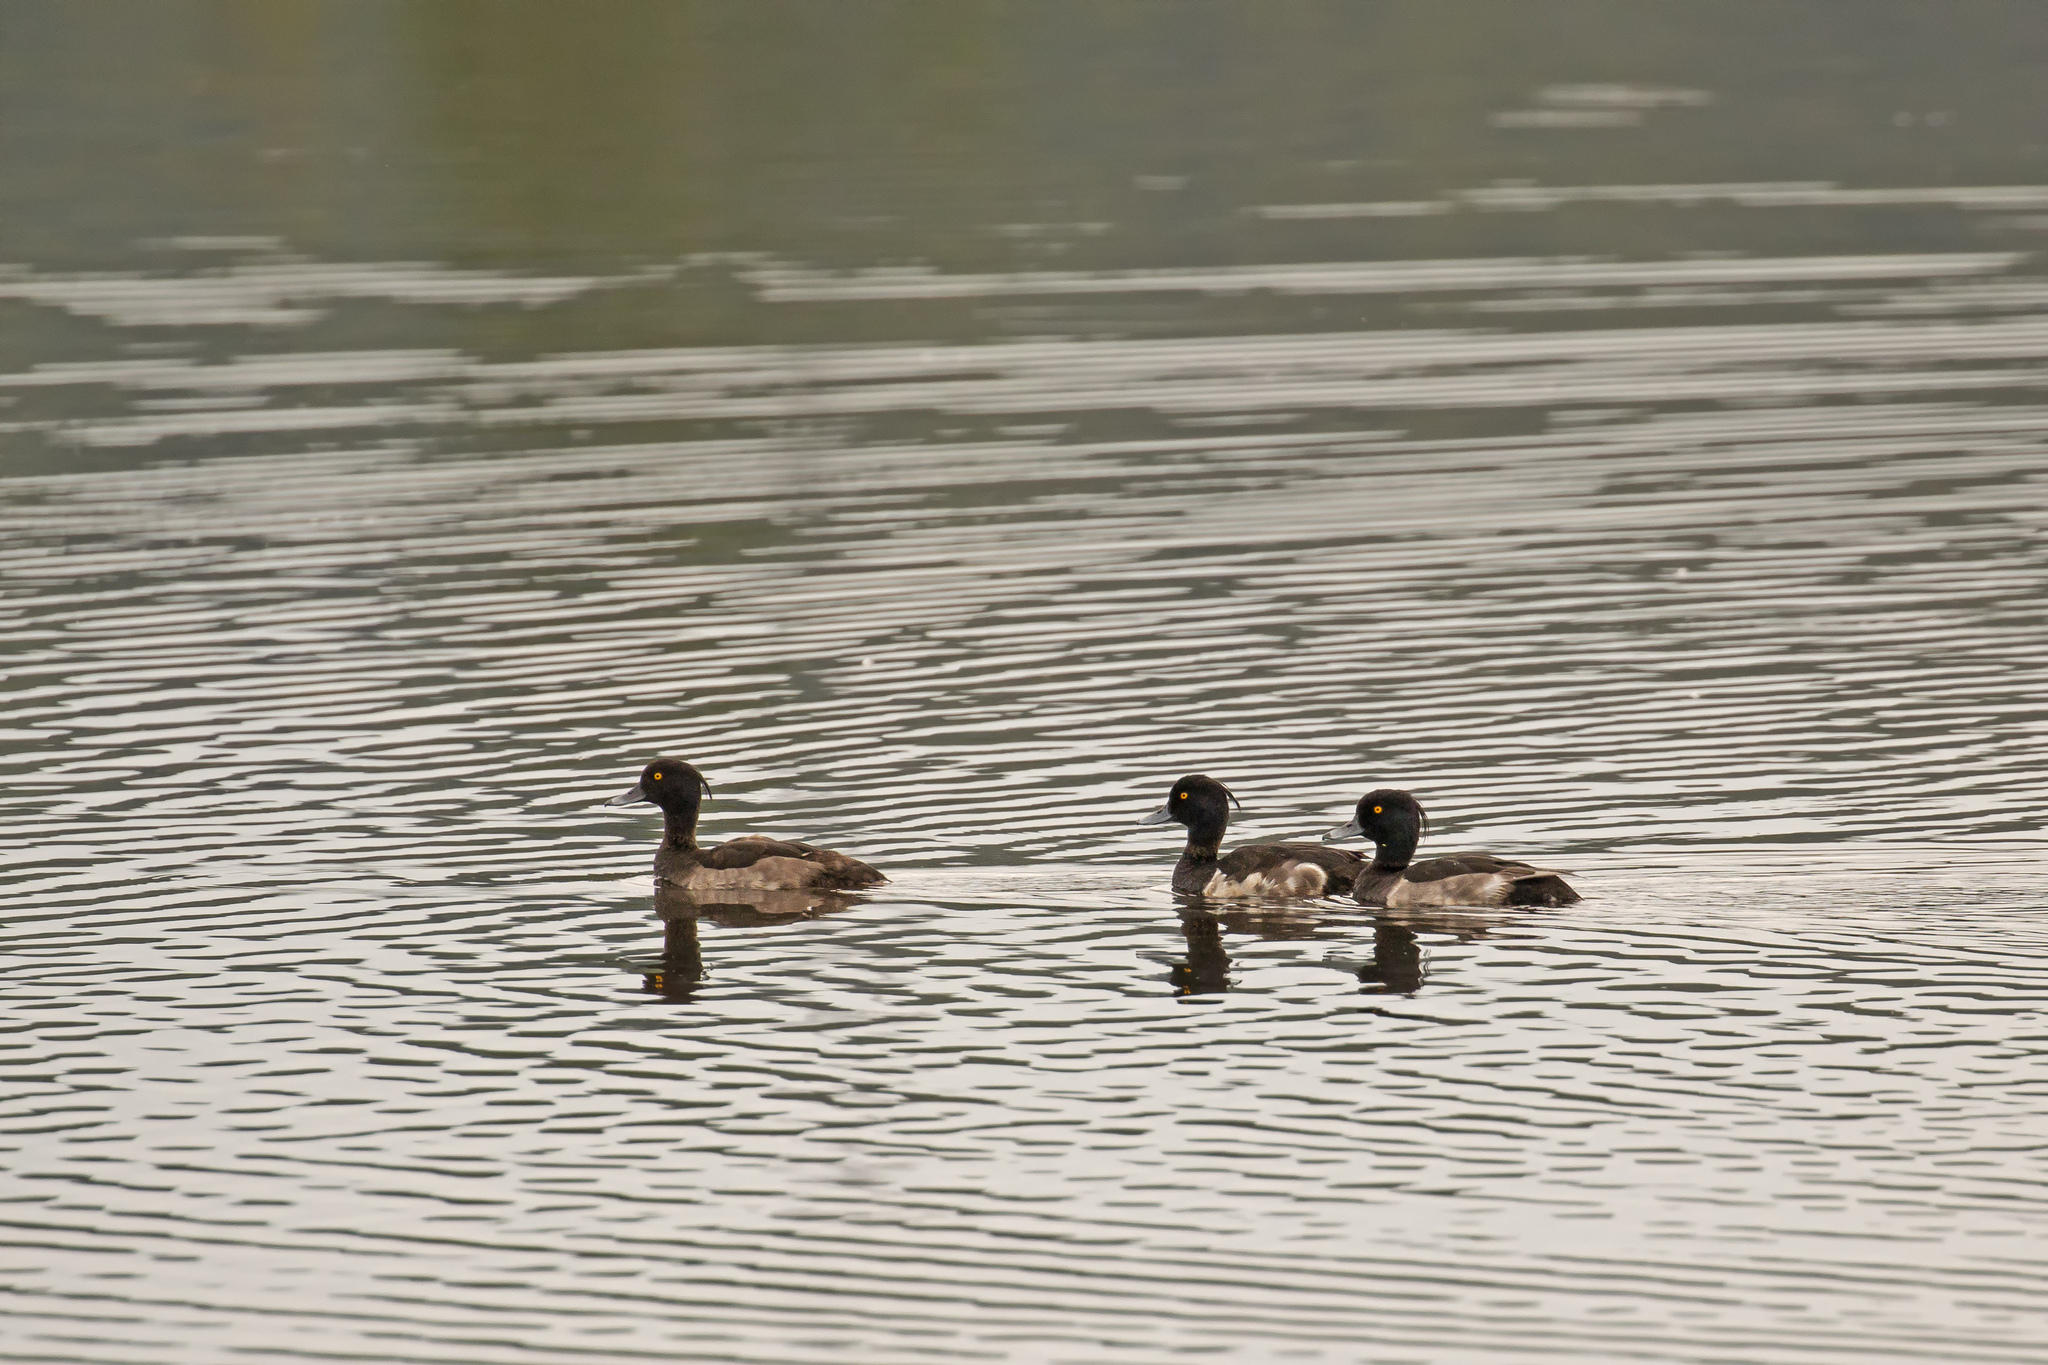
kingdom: Animalia
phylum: Chordata
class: Aves
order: Anseriformes
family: Anatidae
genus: Aythya
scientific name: Aythya fuligula
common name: Tufted duck
